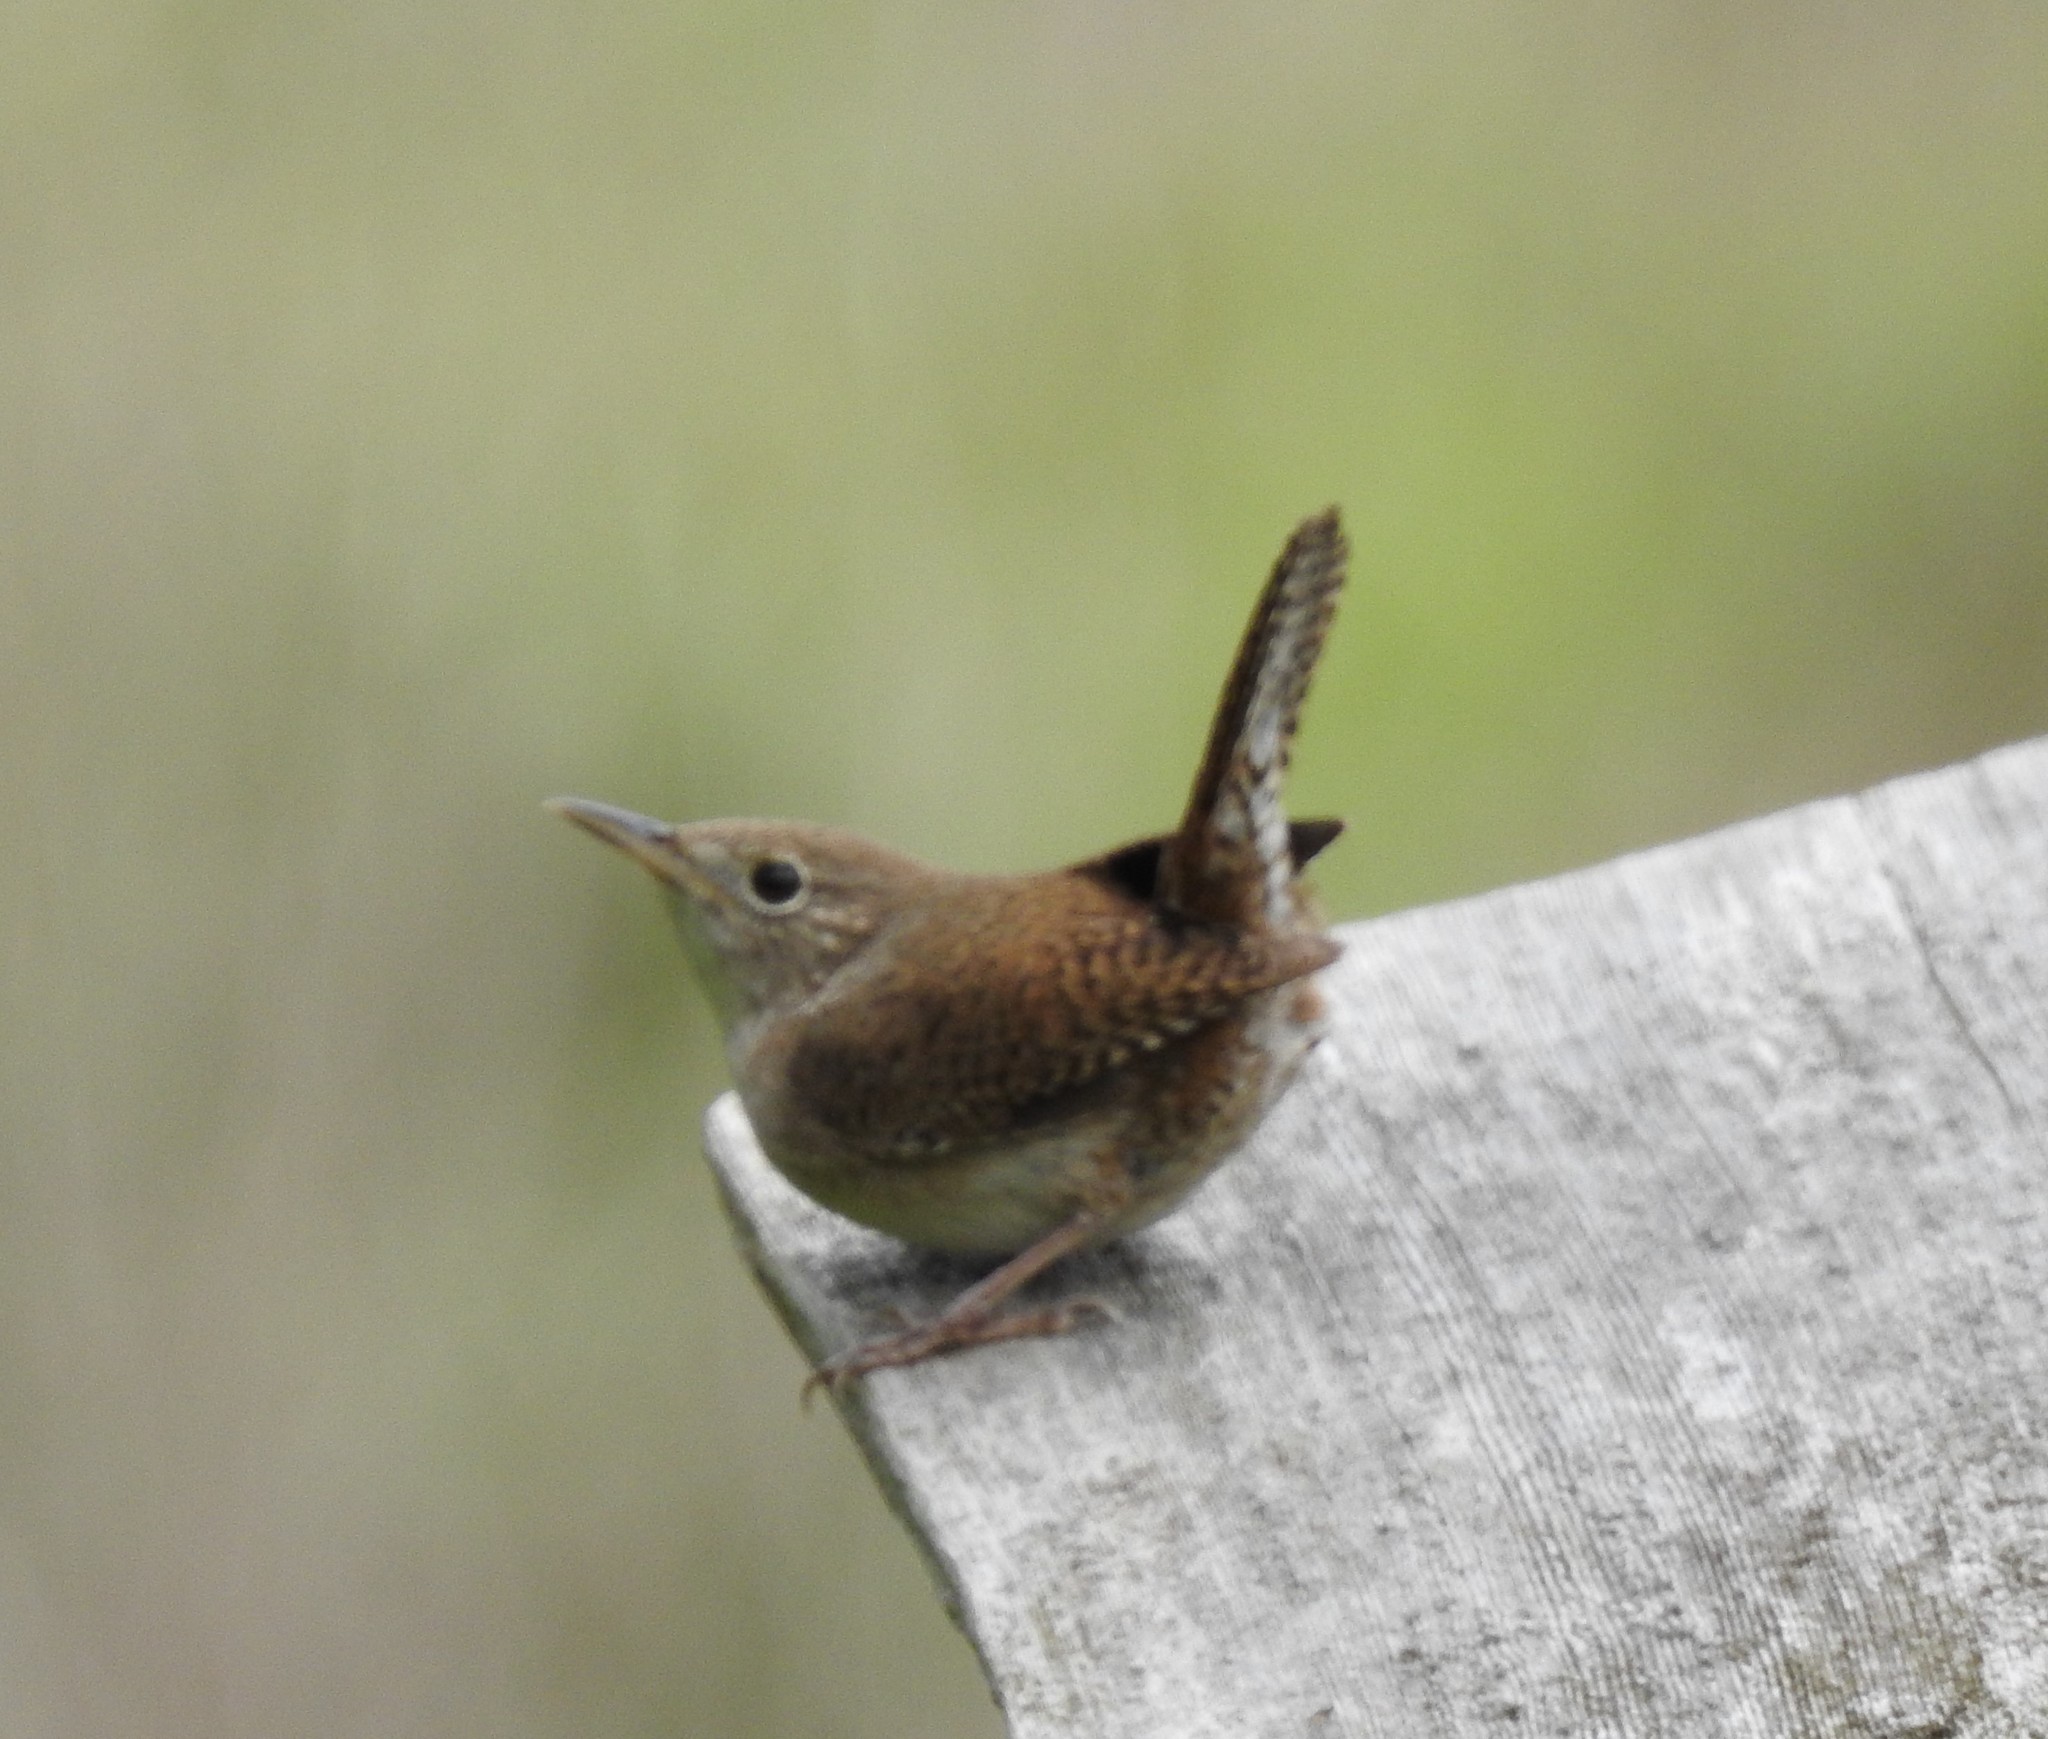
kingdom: Animalia
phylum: Chordata
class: Aves
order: Passeriformes
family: Troglodytidae
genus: Troglodytes
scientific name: Troglodytes aedon
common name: House wren
